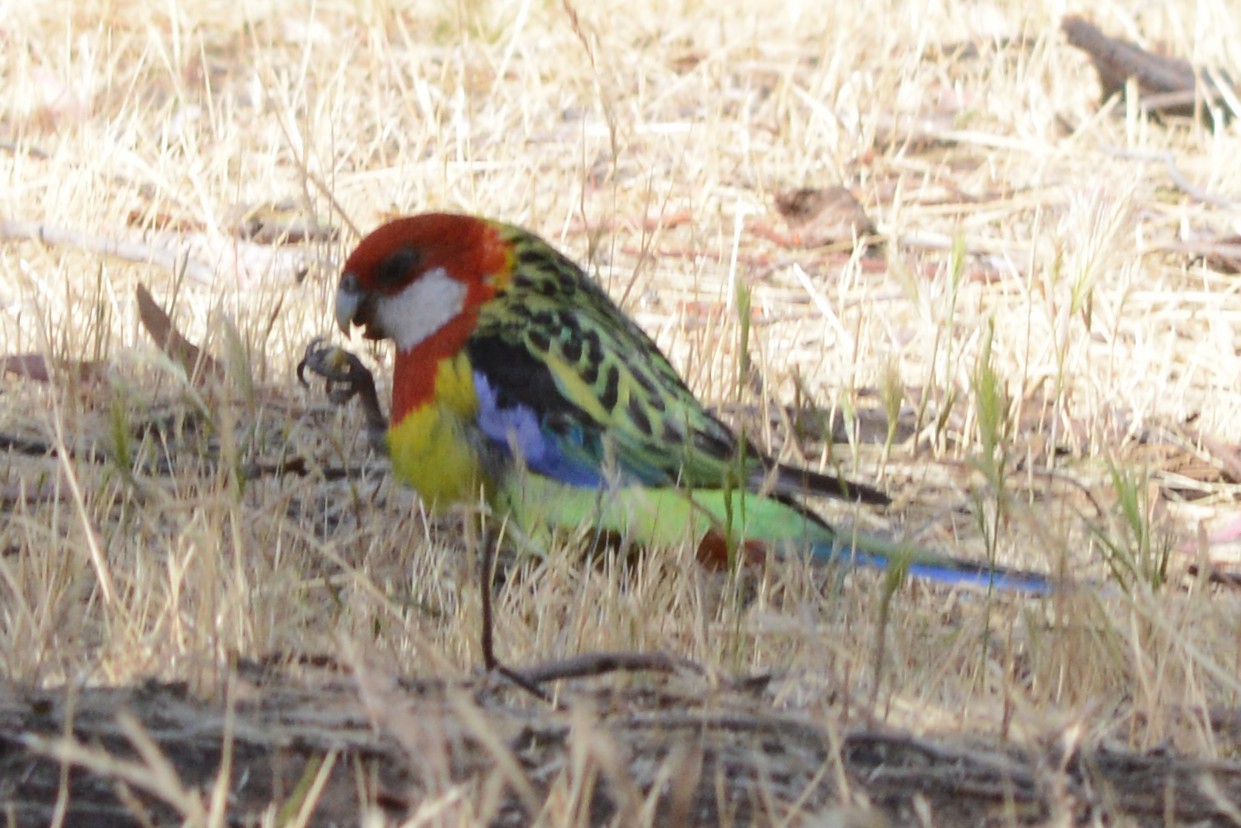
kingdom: Animalia
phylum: Chordata
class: Aves
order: Psittaciformes
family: Psittacidae
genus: Platycercus
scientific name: Platycercus eximius
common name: Eastern rosella
